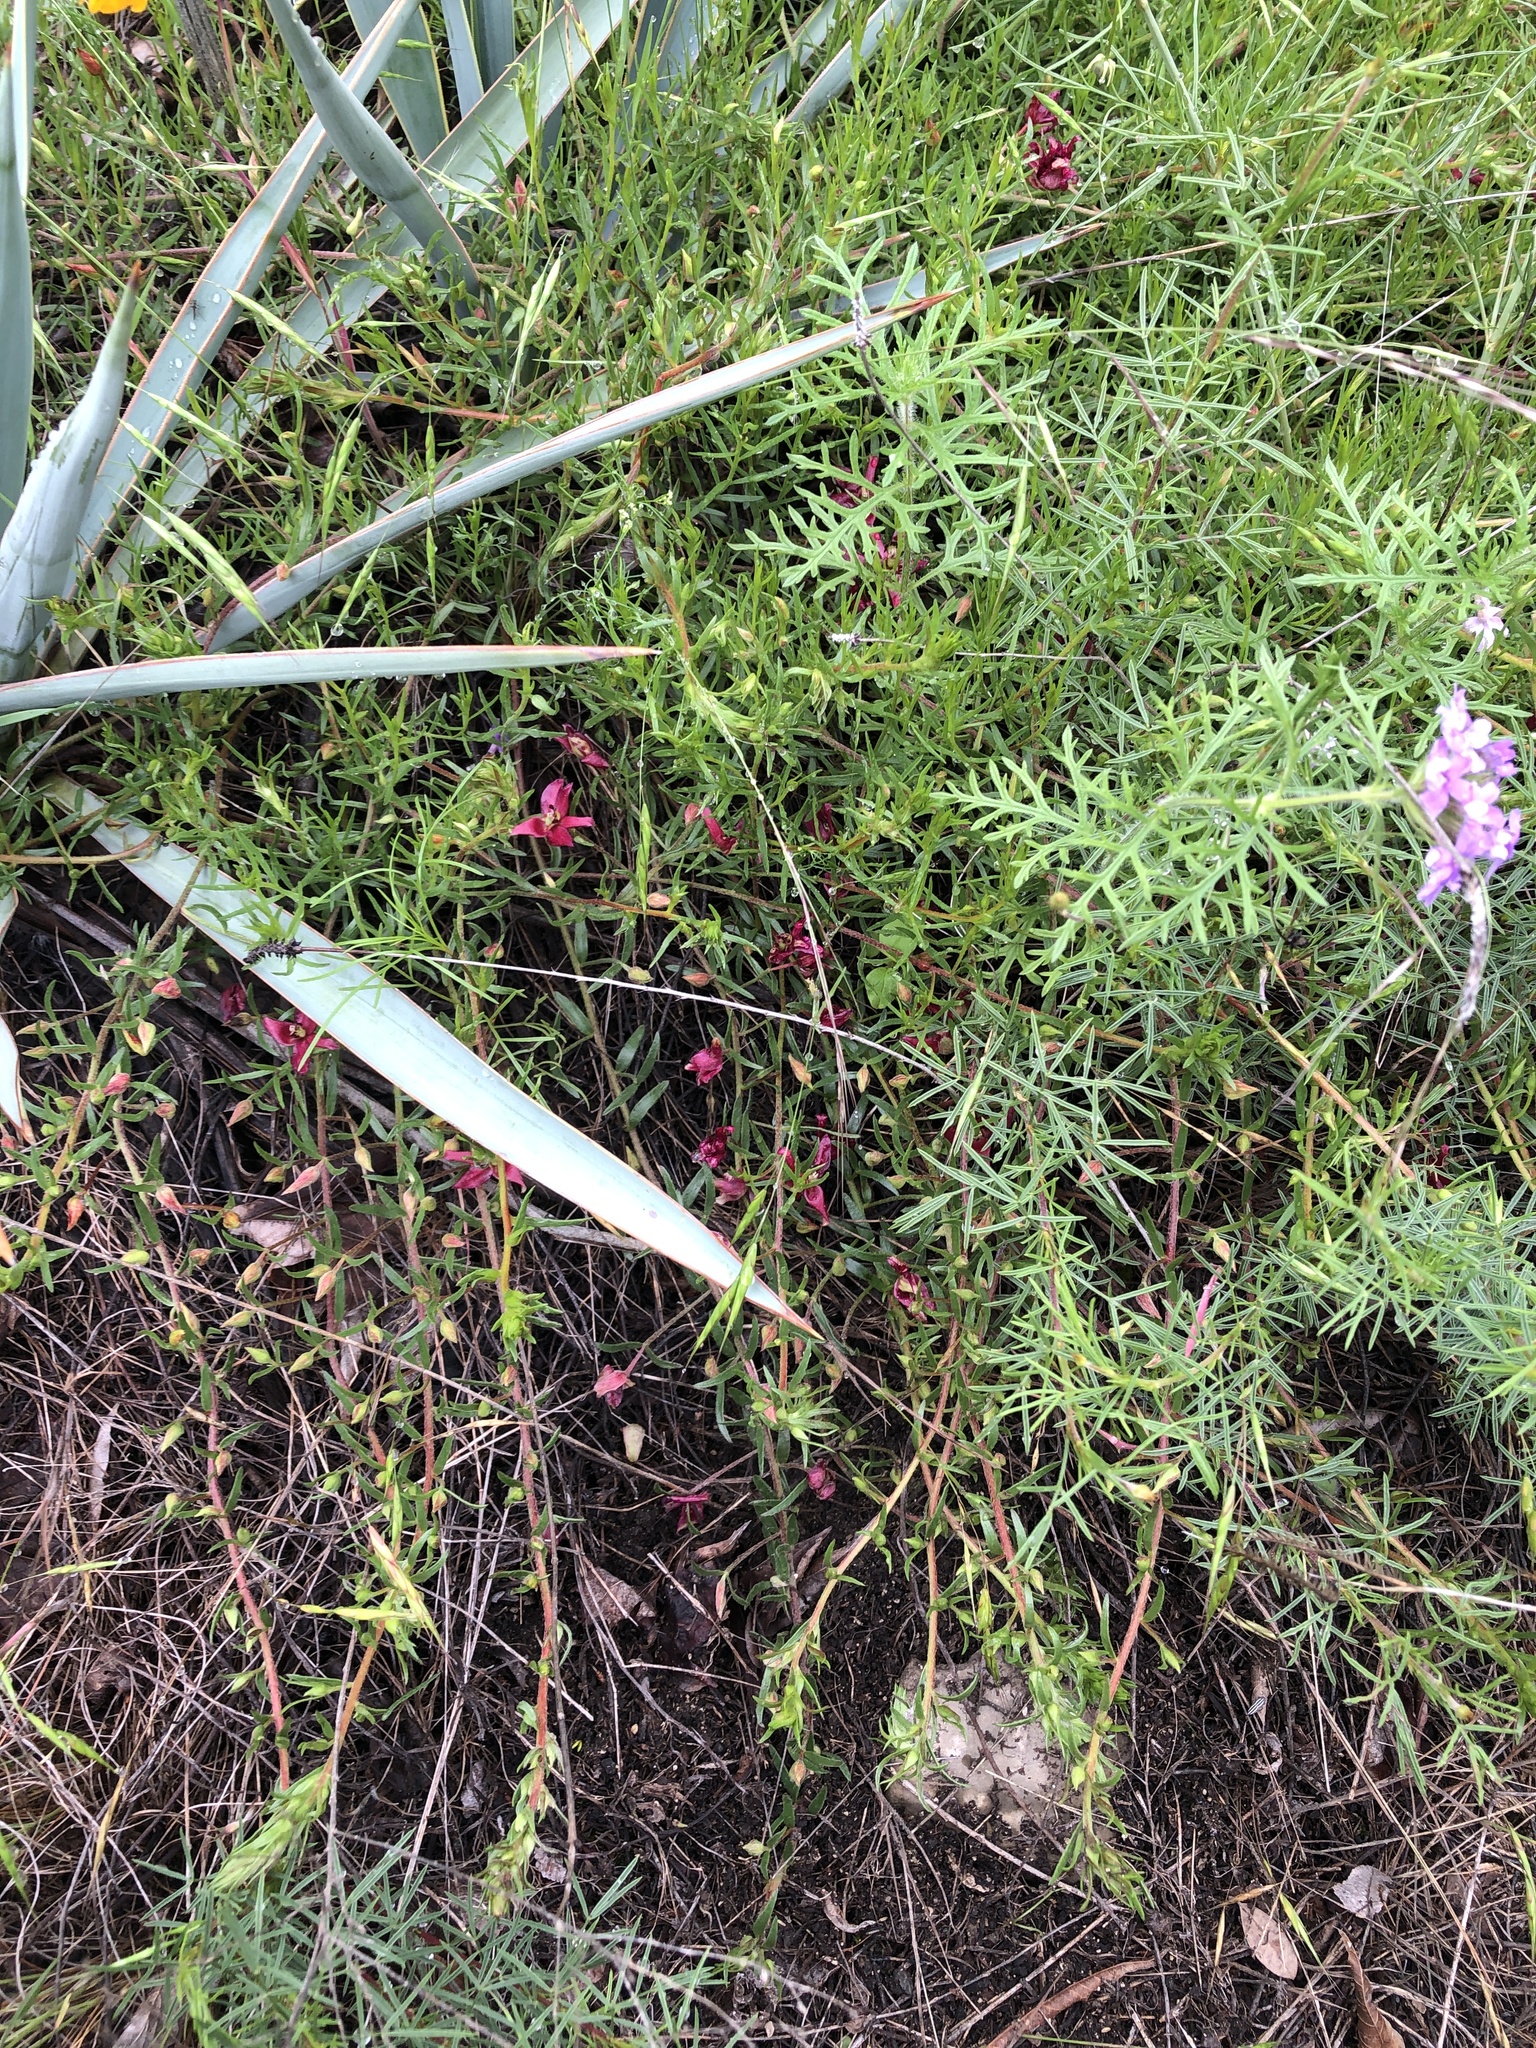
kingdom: Plantae
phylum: Tracheophyta
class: Magnoliopsida
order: Zygophyllales
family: Krameriaceae
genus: Krameria
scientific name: Krameria lanceolata
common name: Ratany
